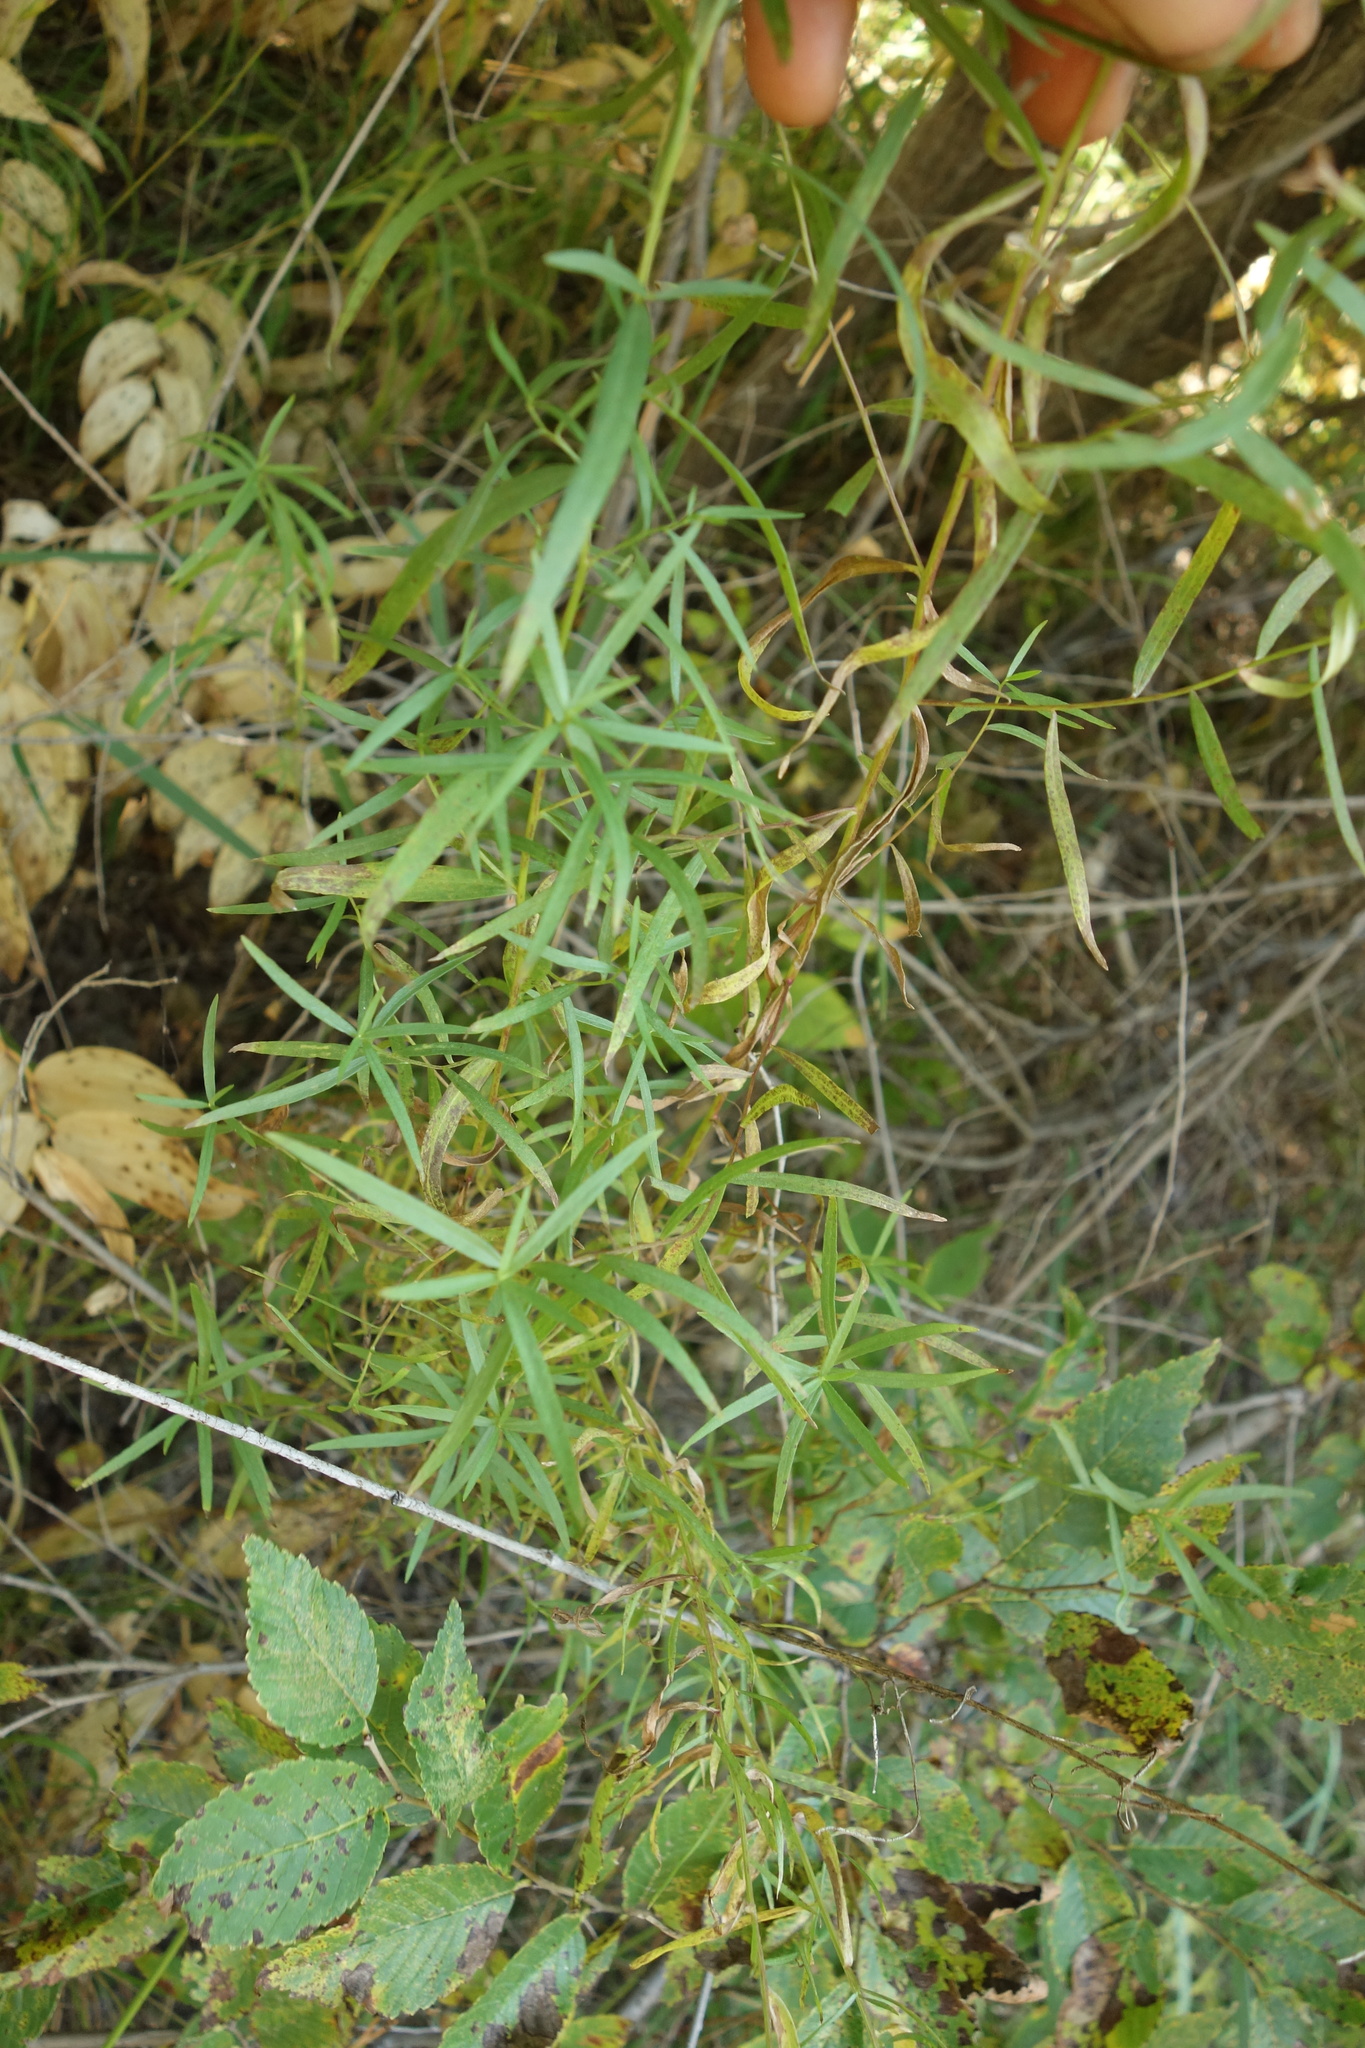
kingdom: Plantae
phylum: Tracheophyta
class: Magnoliopsida
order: Asterales
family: Asteraceae
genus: Artemisia
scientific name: Artemisia dracunculus
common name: Tarragon
